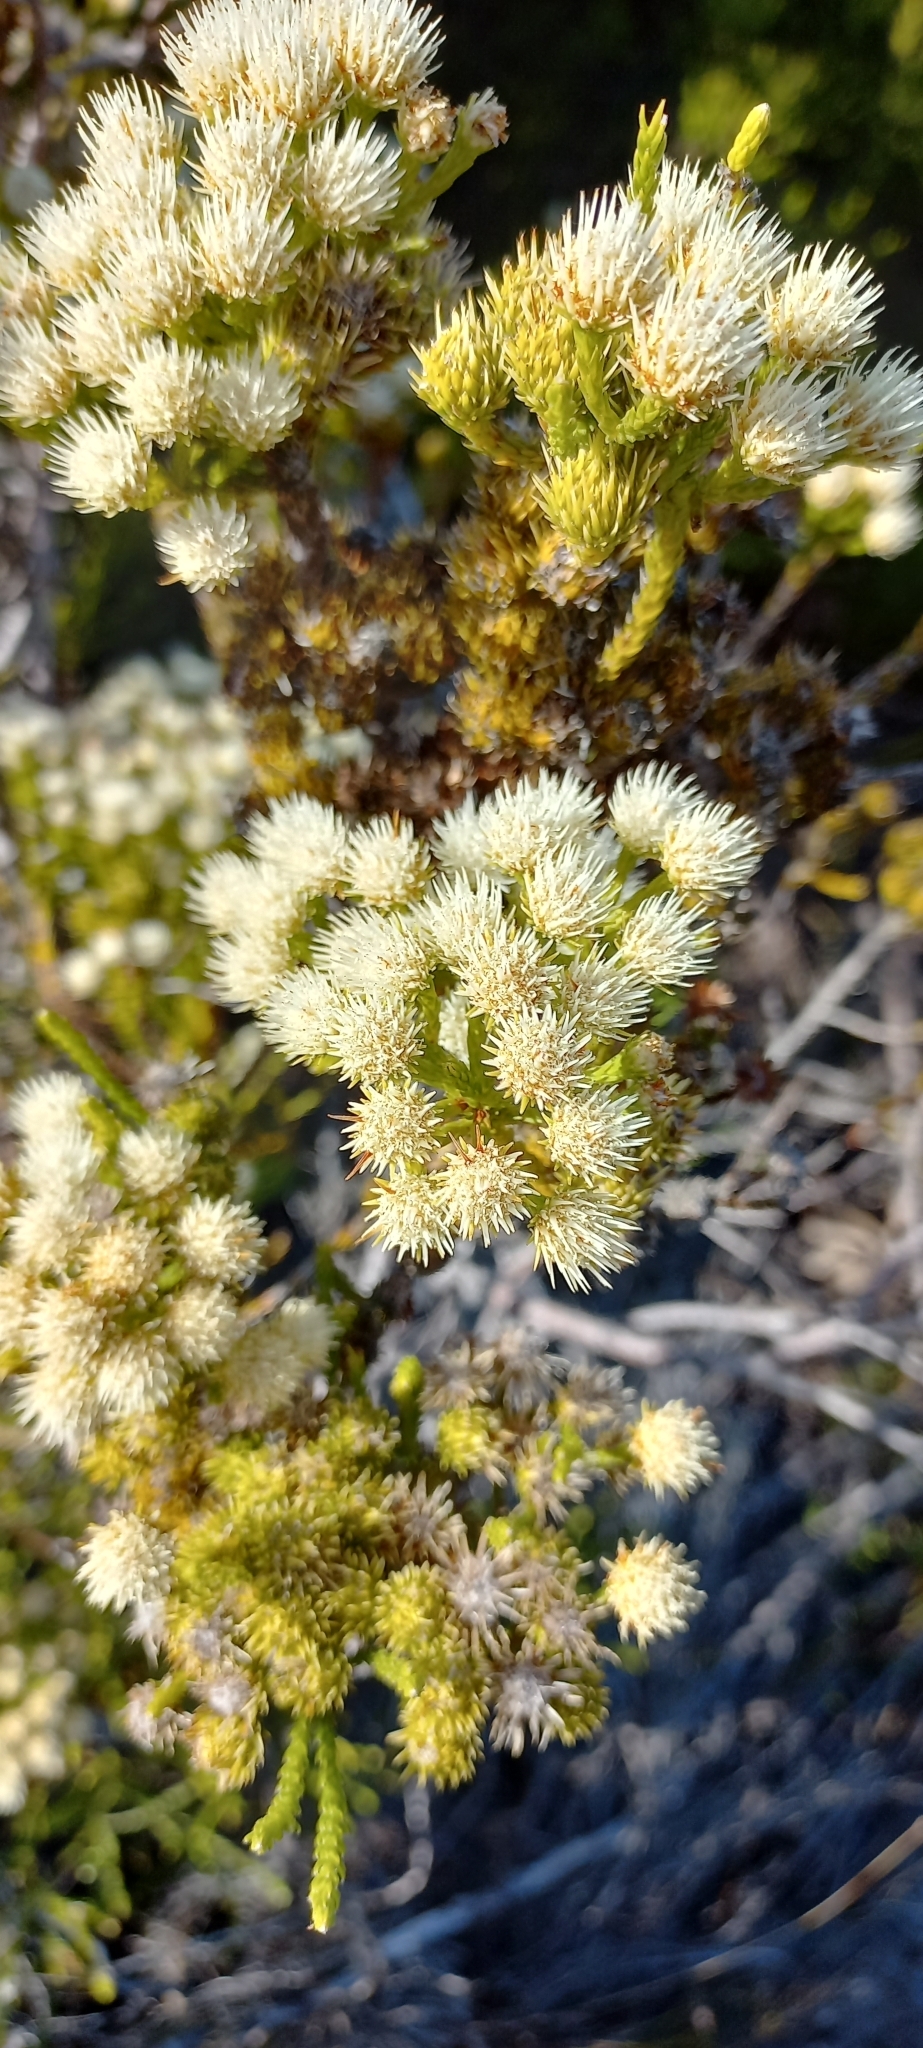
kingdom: Plantae
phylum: Tracheophyta
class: Magnoliopsida
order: Bruniales
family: Bruniaceae
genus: Brunia
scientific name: Brunia paleacea
